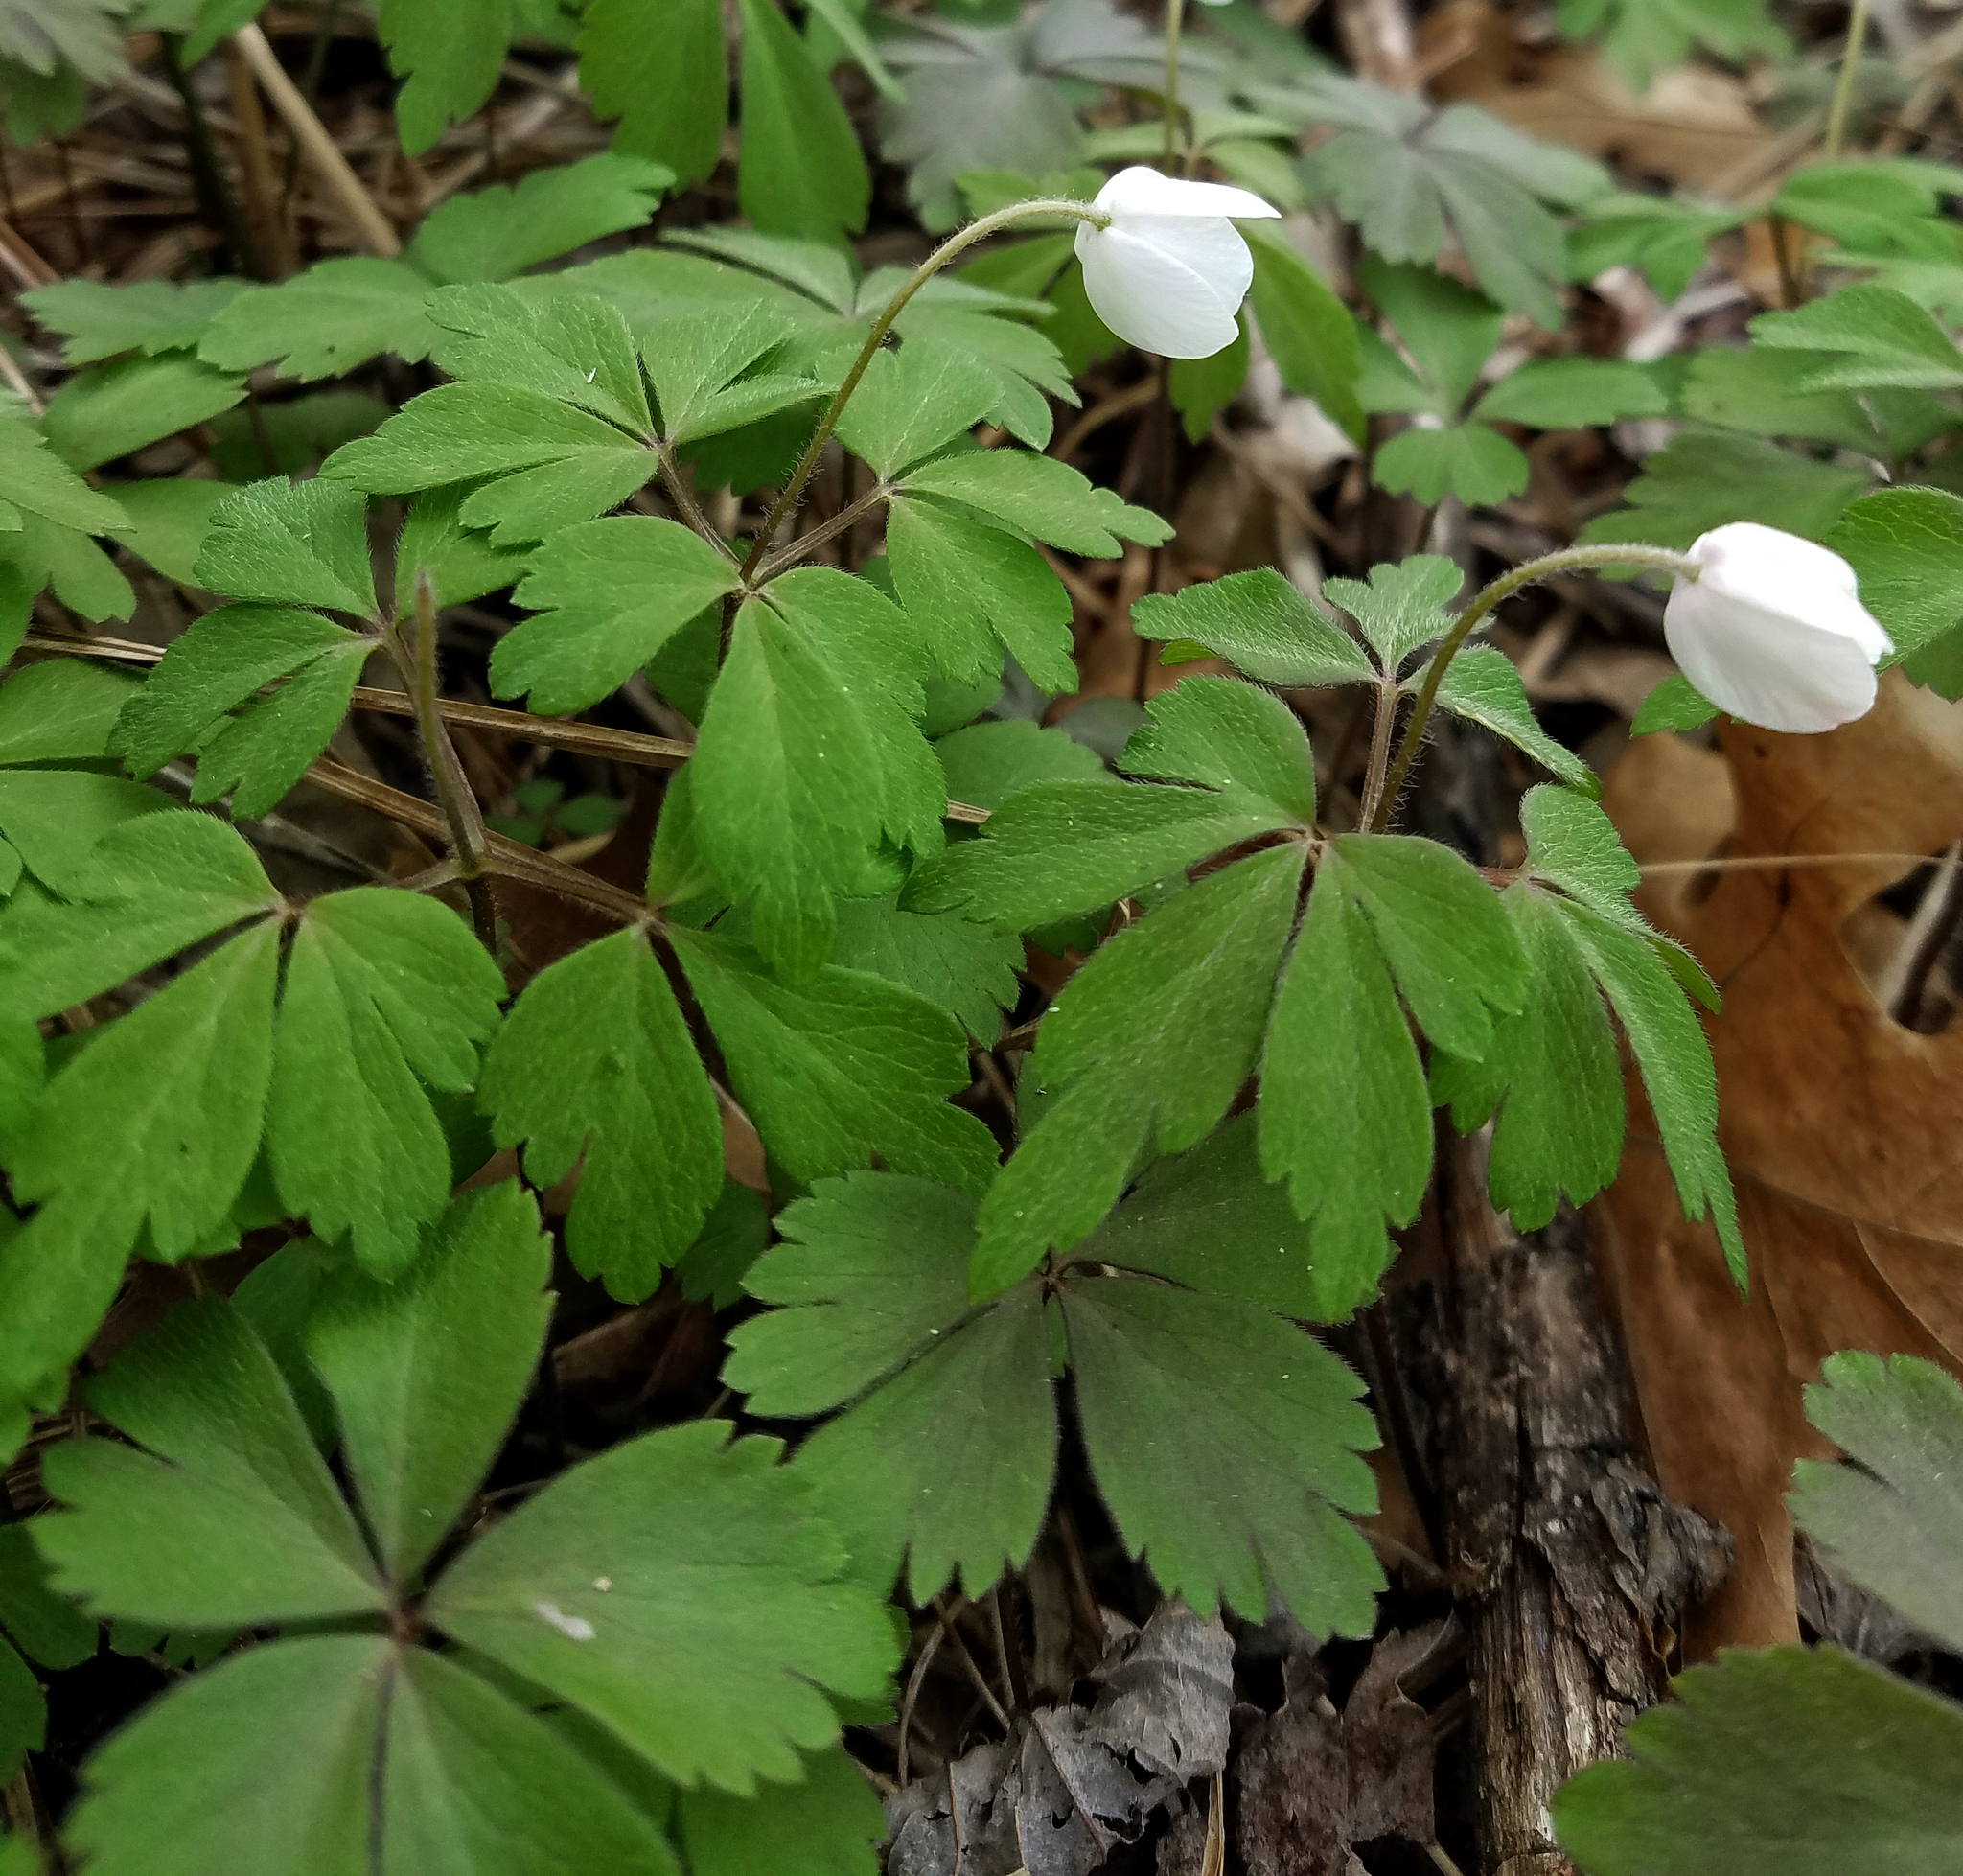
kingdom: Plantae
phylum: Tracheophyta
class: Magnoliopsida
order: Ranunculales
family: Ranunculaceae
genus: Anemone
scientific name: Anemone quinquefolia
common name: Wood anemone
